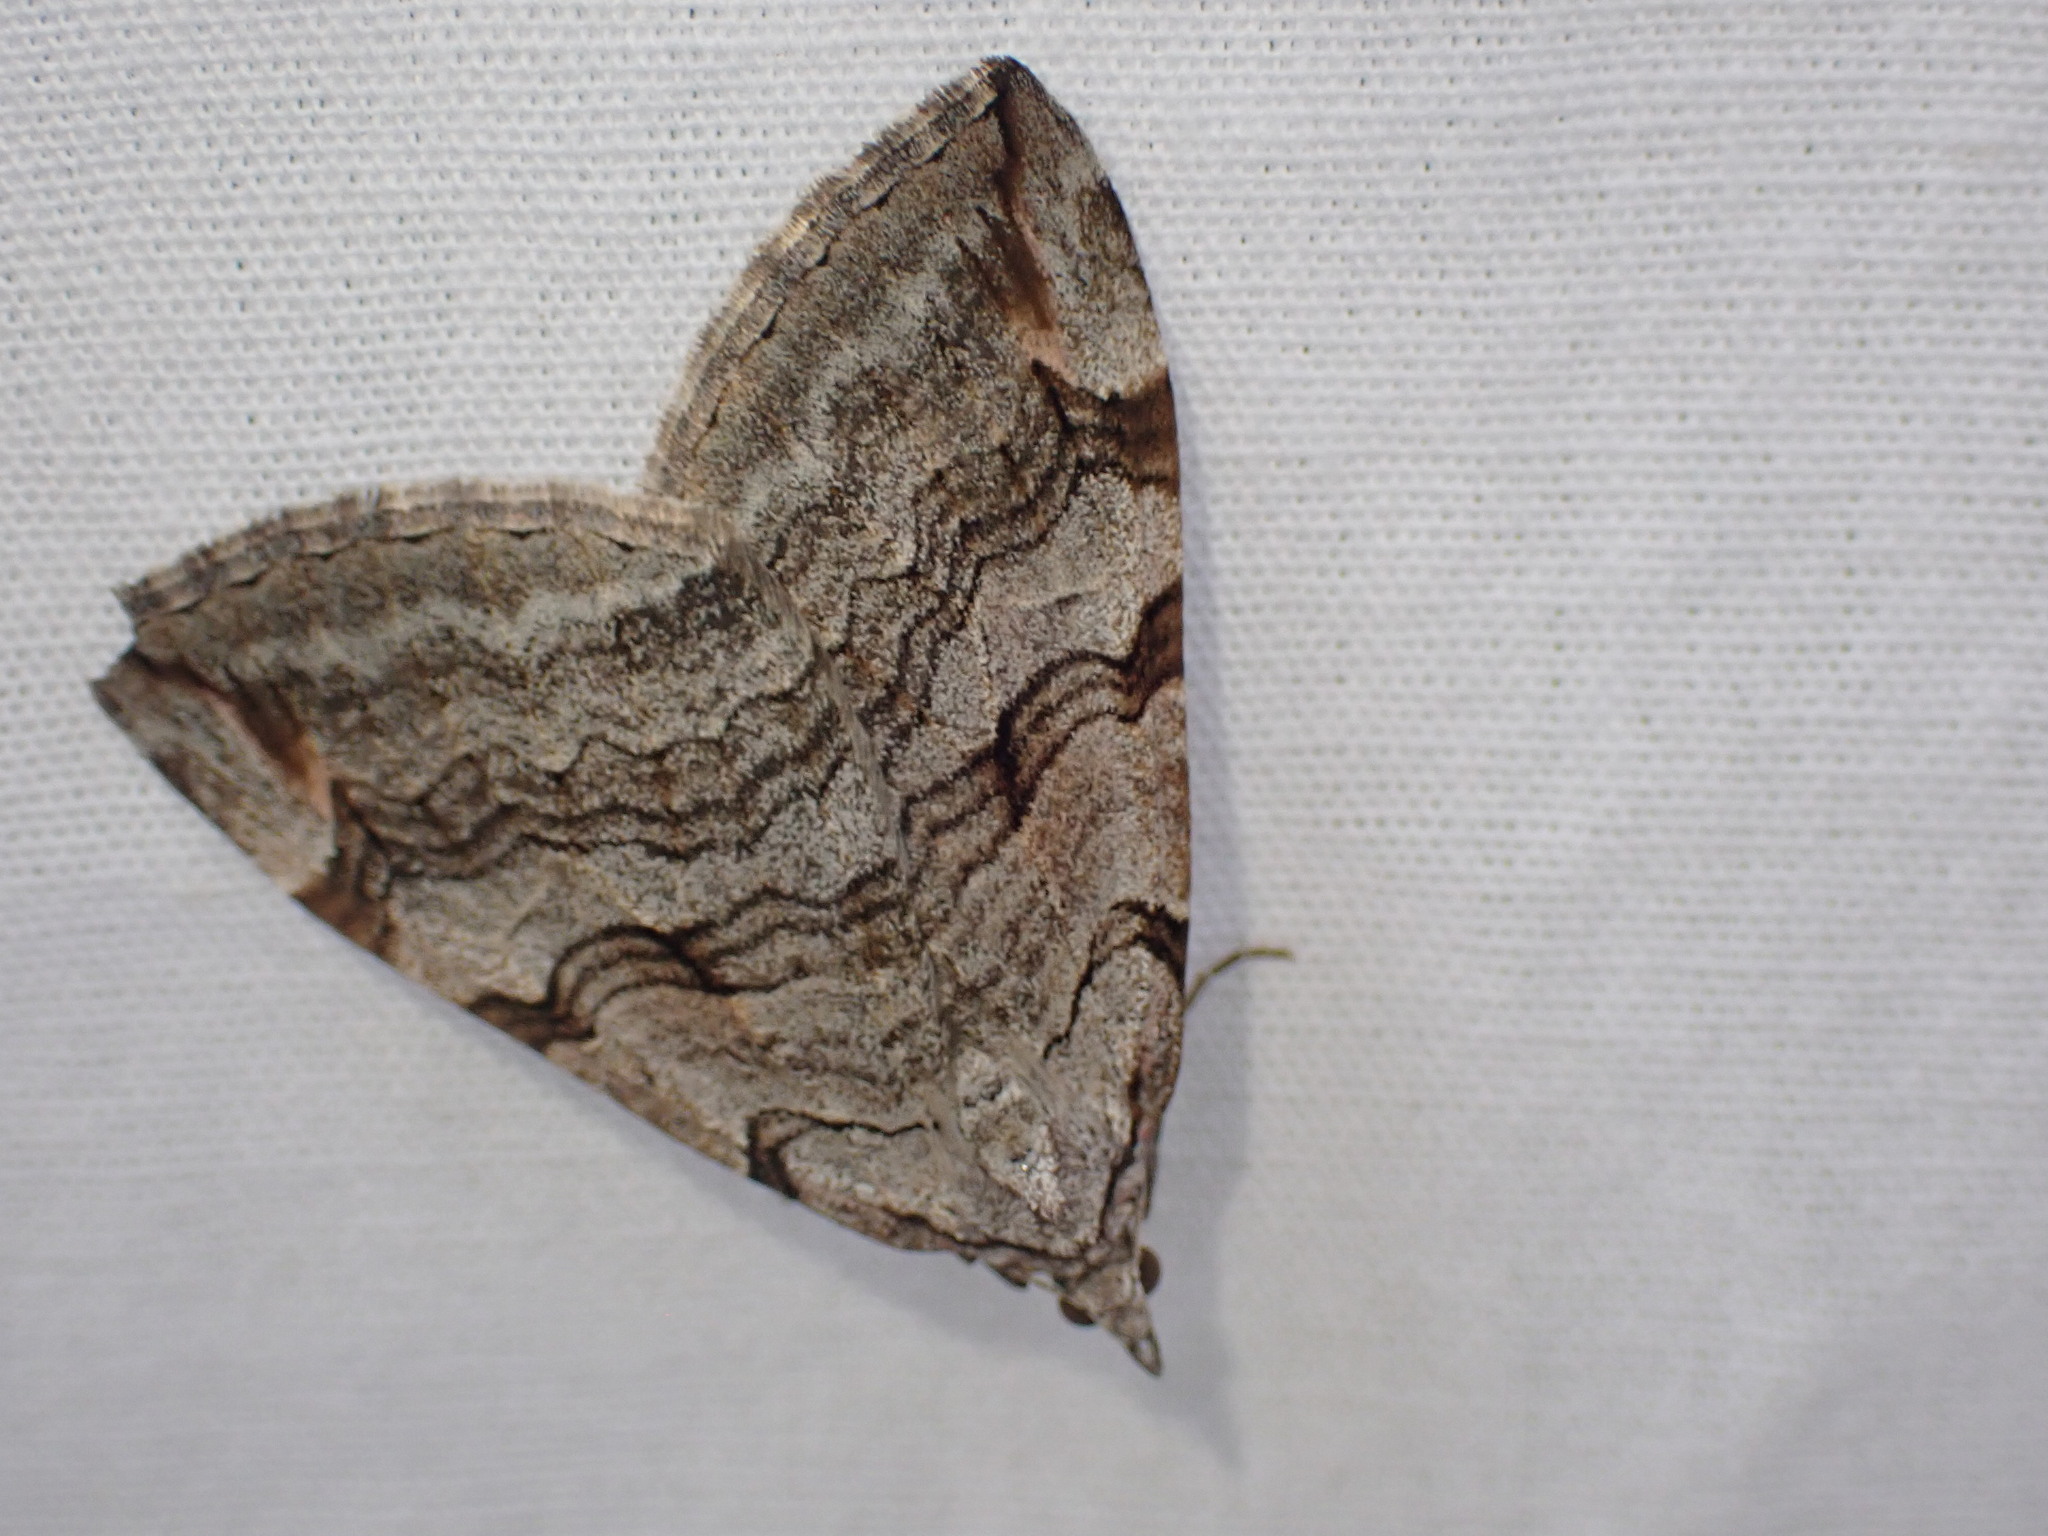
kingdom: Animalia
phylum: Arthropoda
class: Insecta
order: Lepidoptera
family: Geometridae
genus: Aplocera
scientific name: Aplocera plagiata
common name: Treble-bar
